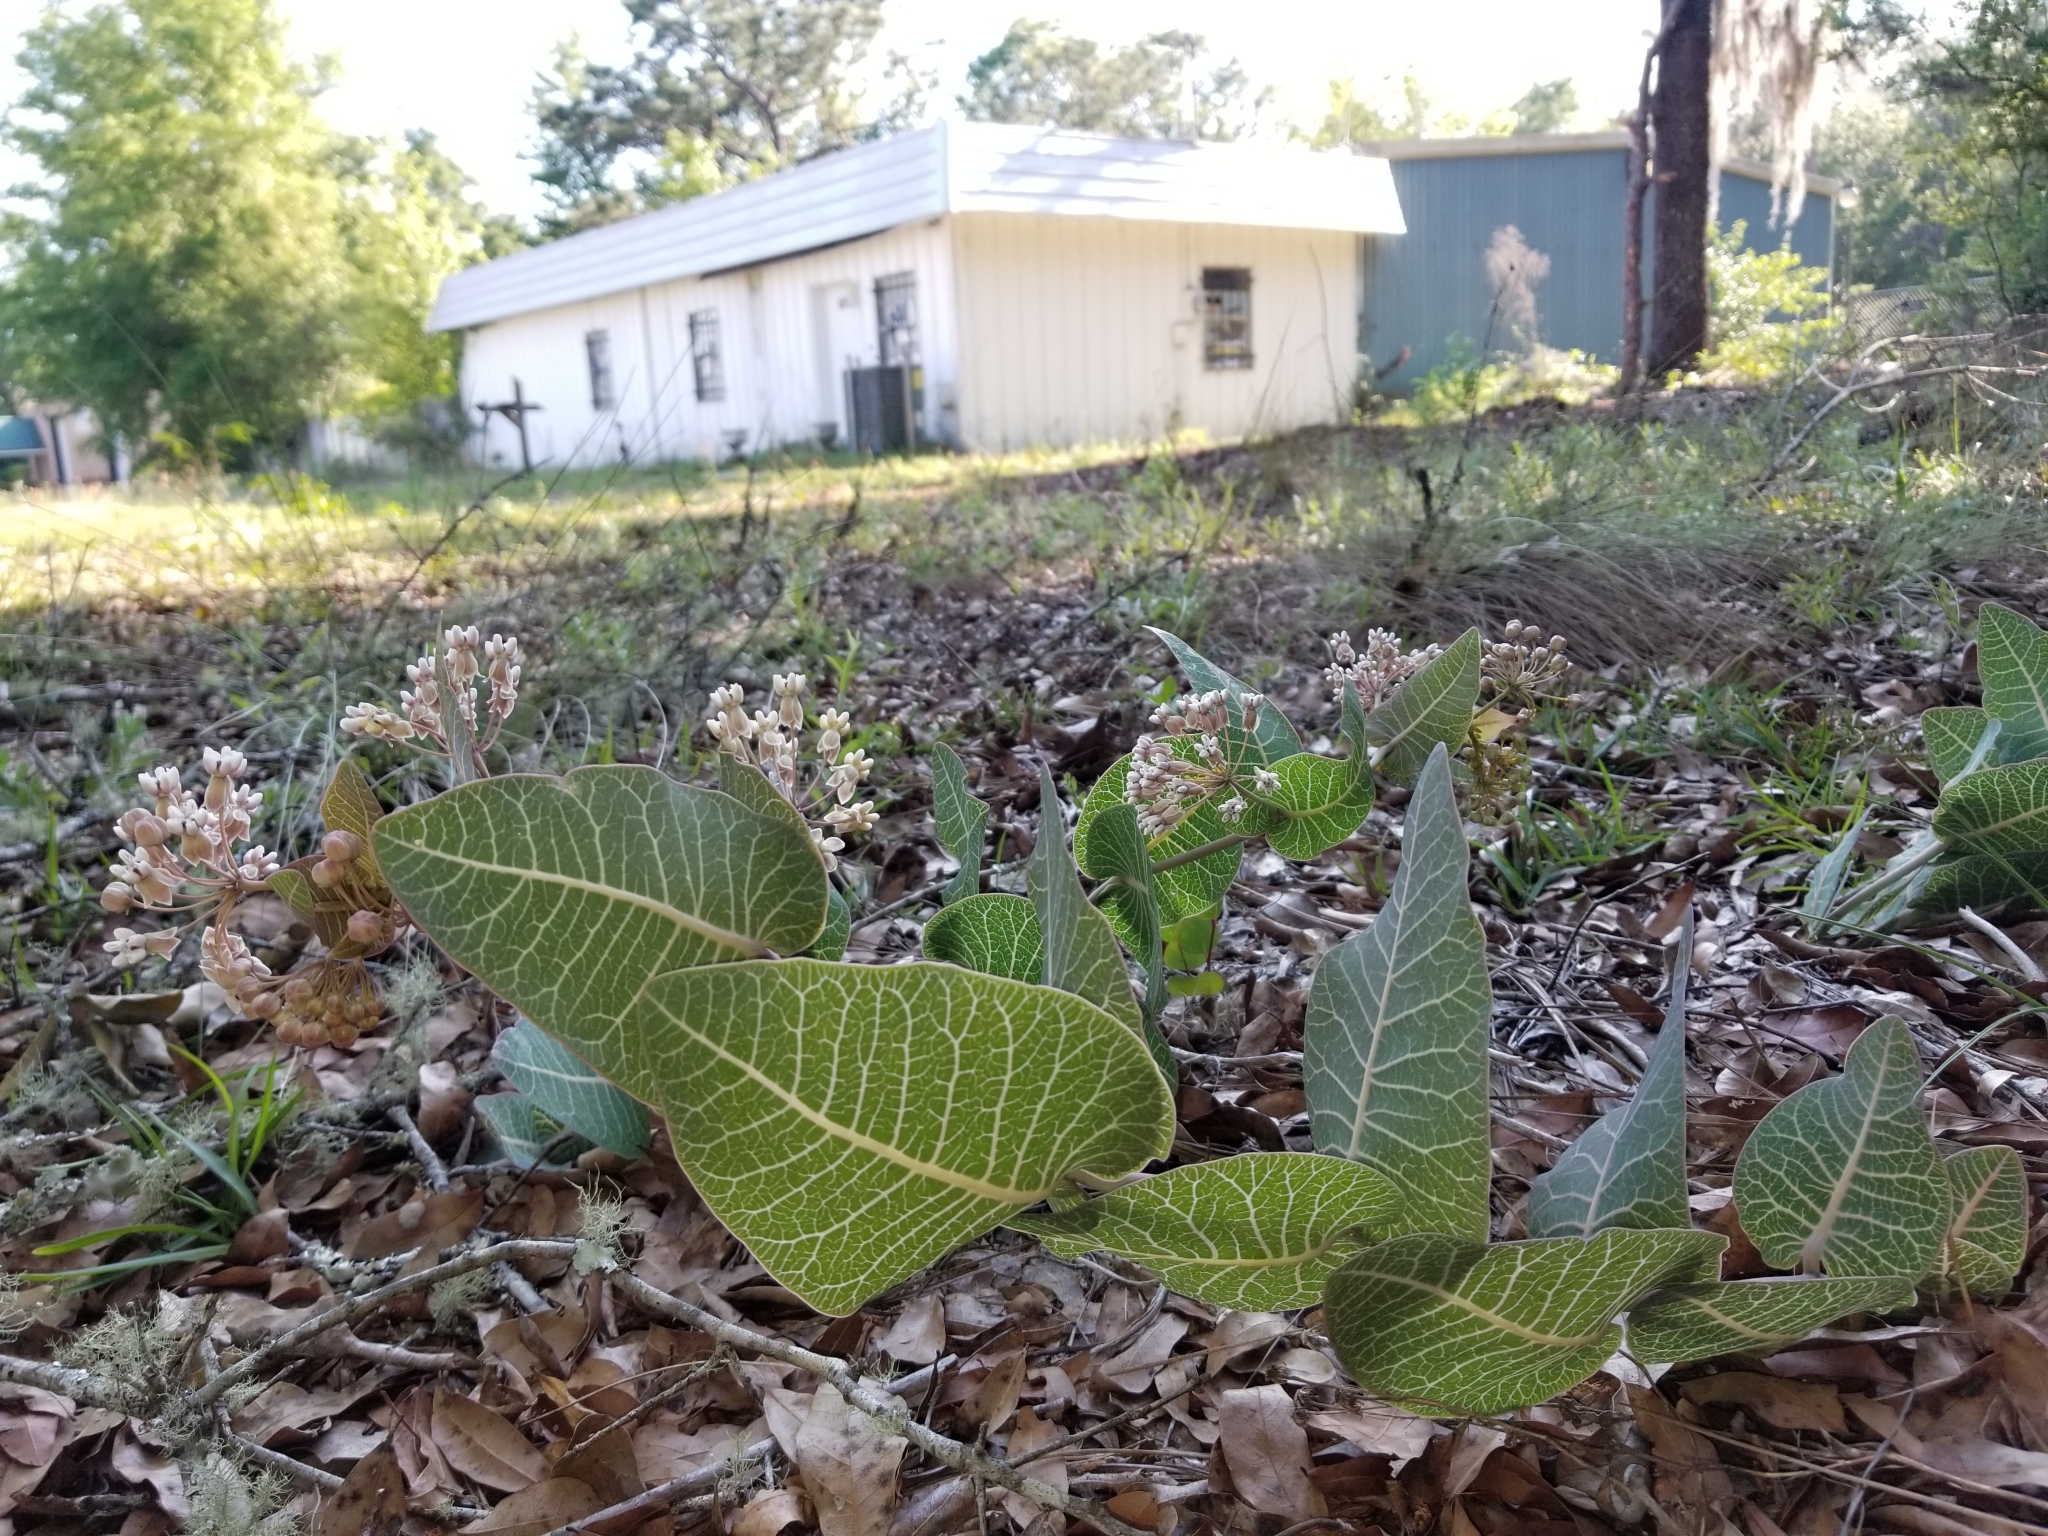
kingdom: Plantae
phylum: Tracheophyta
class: Magnoliopsida
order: Gentianales
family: Apocynaceae
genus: Asclepias
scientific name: Asclepias humistrata
